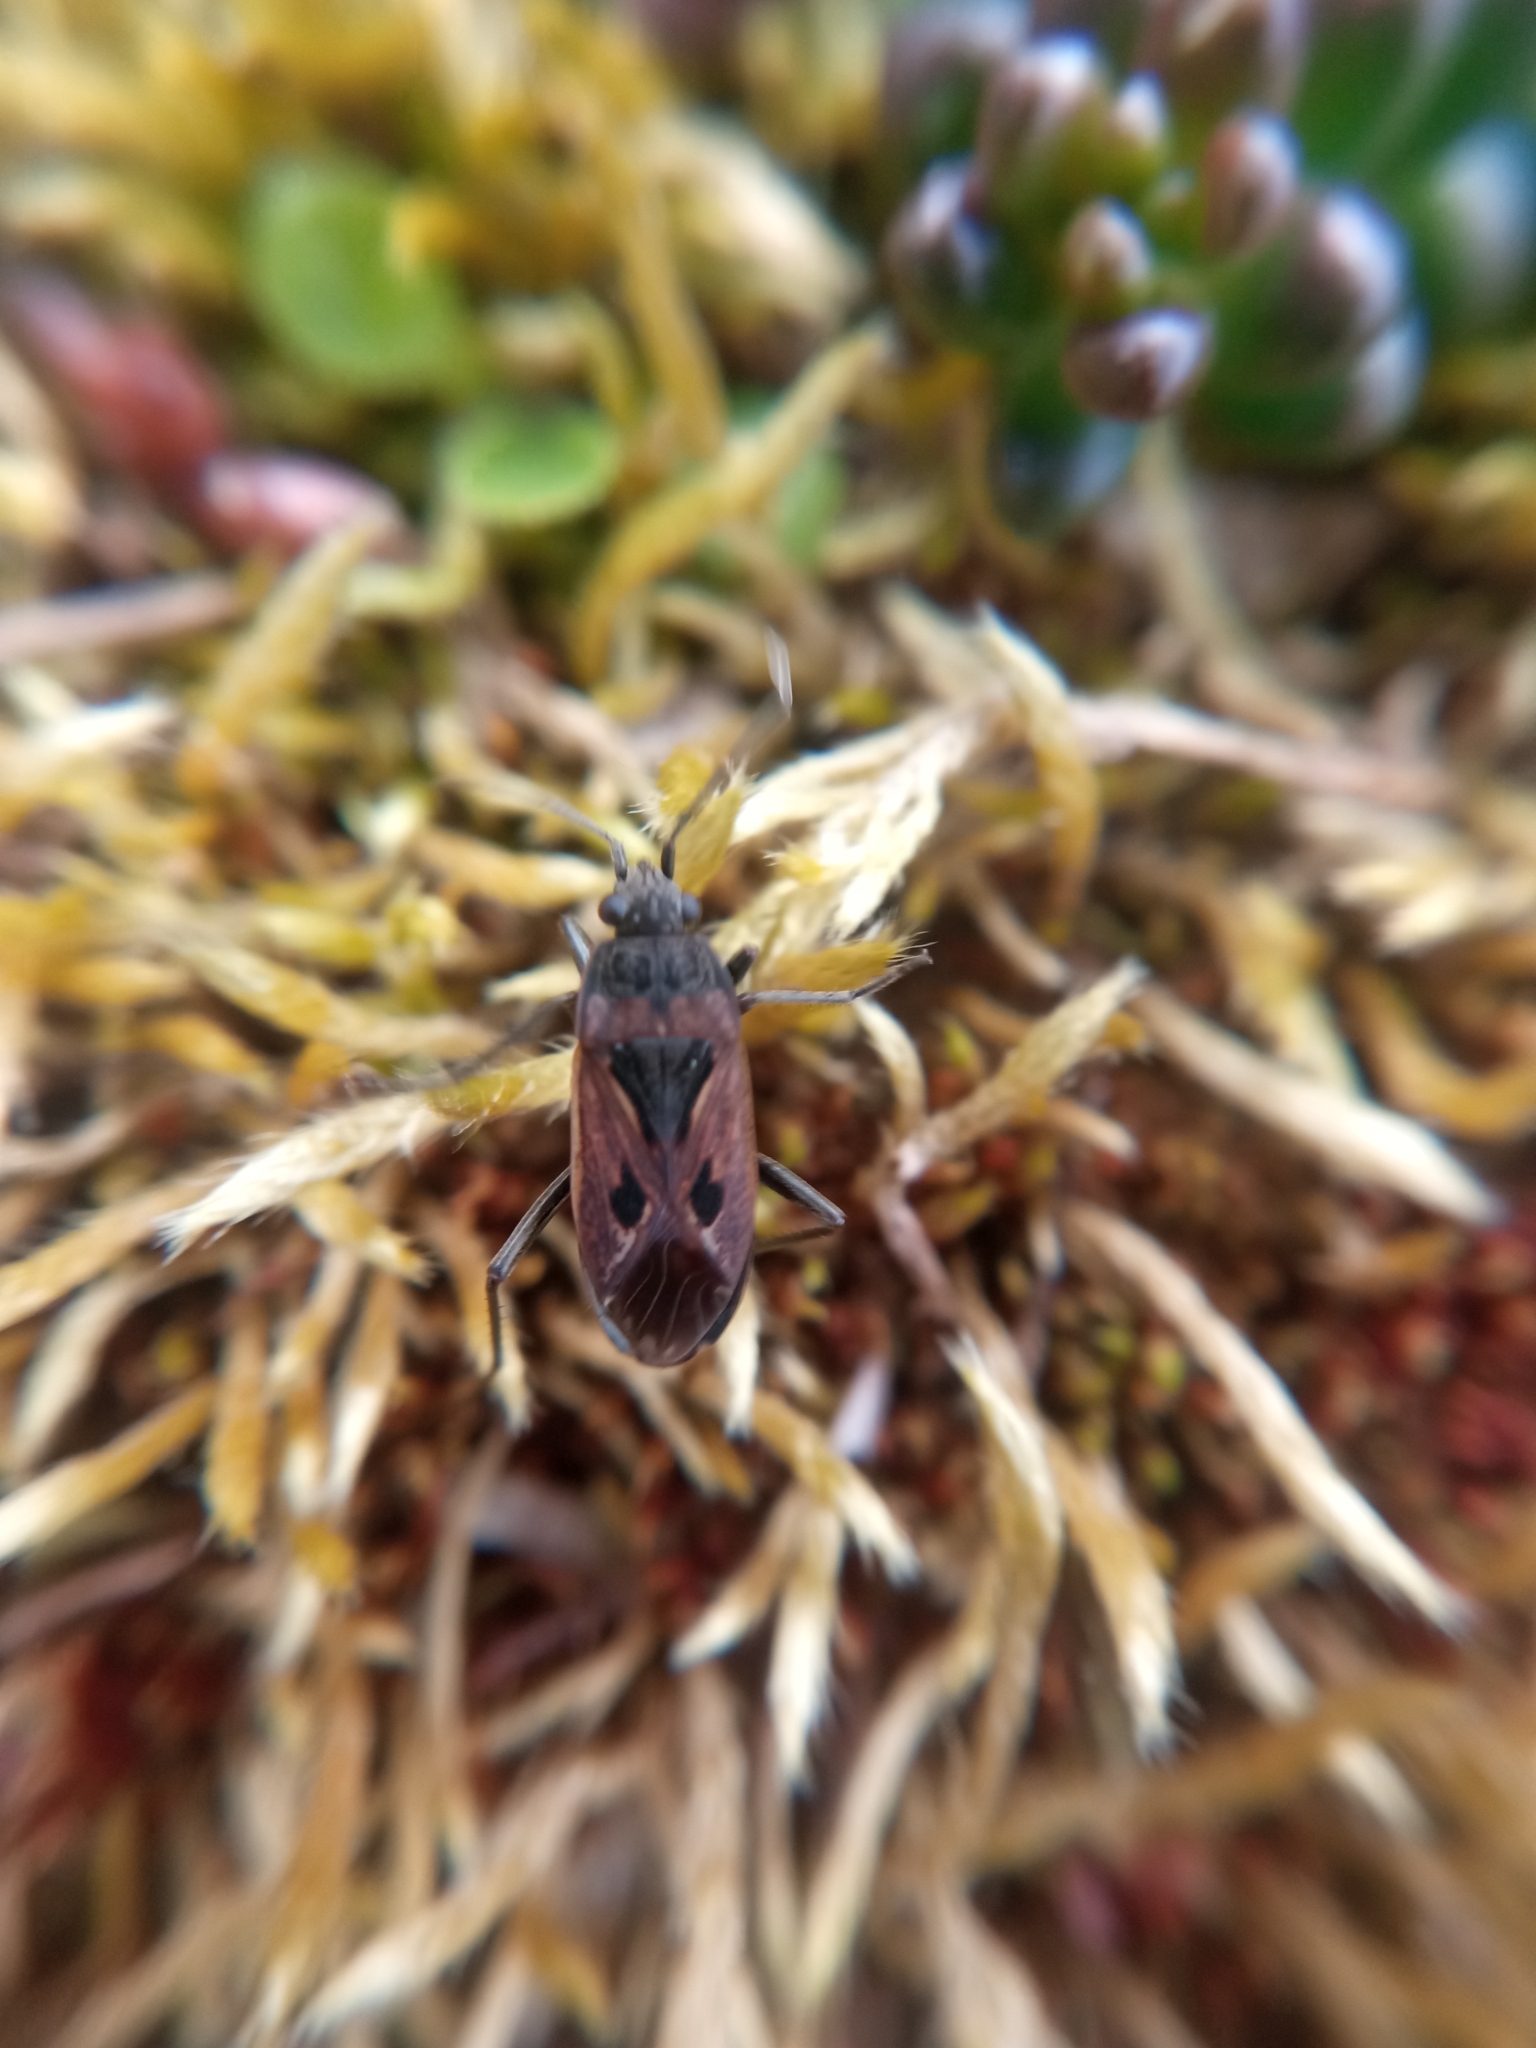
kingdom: Animalia
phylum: Arthropoda
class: Insecta
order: Hemiptera
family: Rhyparochromidae
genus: Rhyparochromus
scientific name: Rhyparochromus pini
